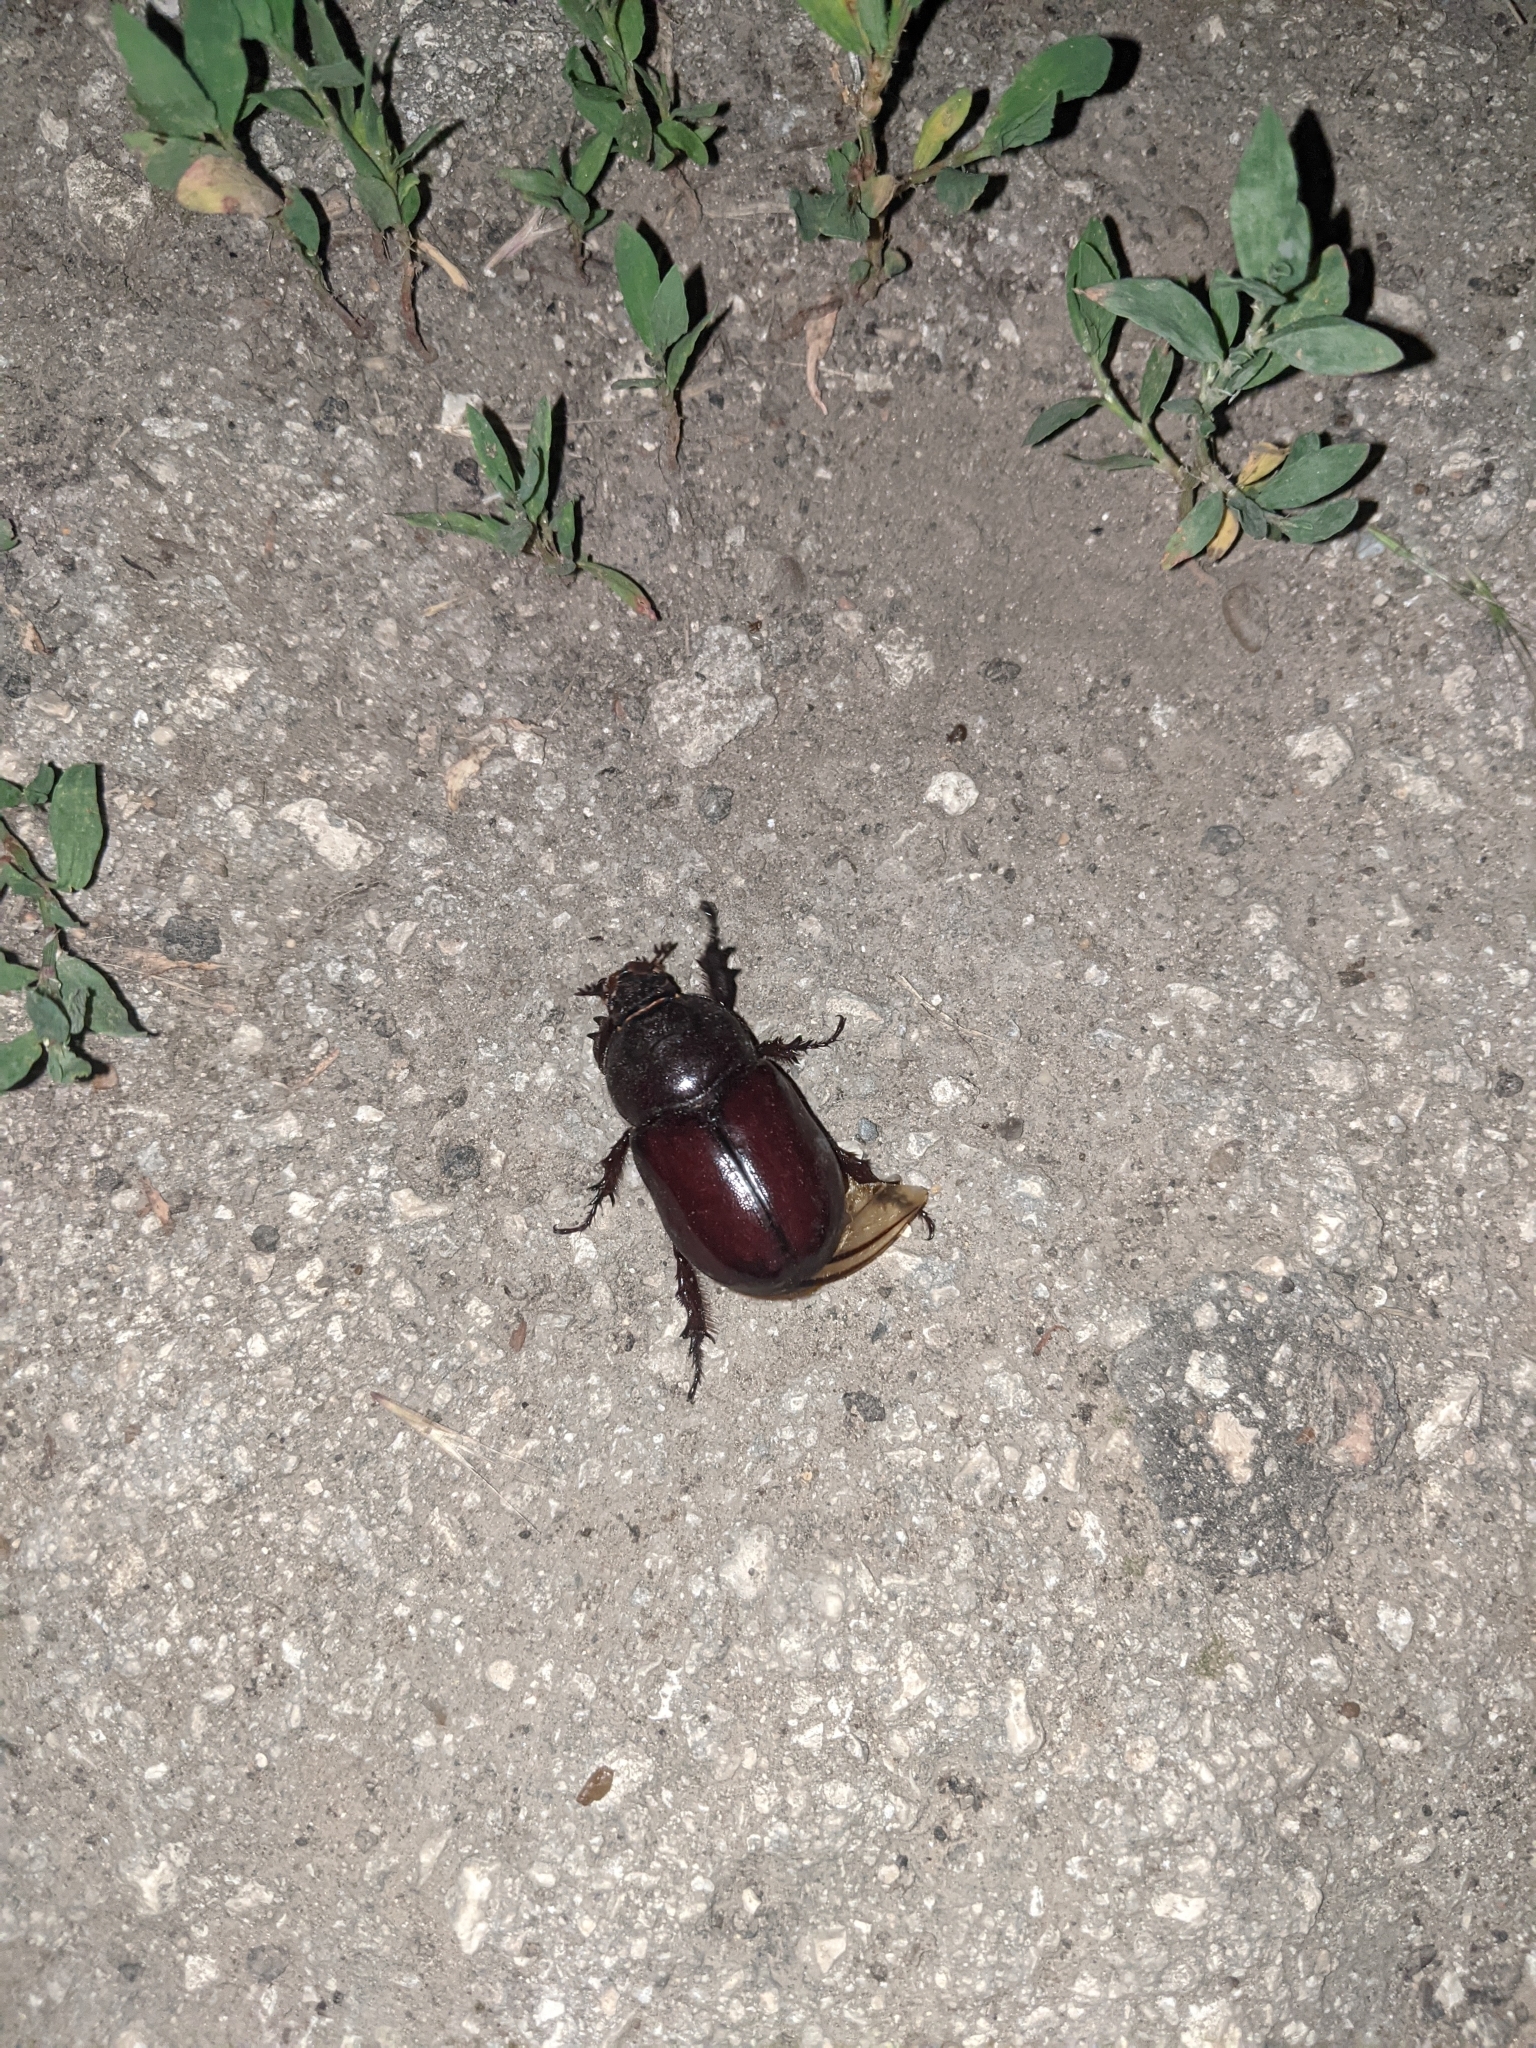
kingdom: Animalia
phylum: Arthropoda
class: Insecta
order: Coleoptera
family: Scarabaeidae
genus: Oryctes
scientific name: Oryctes nasicornis
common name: European rhinoceros beetle
